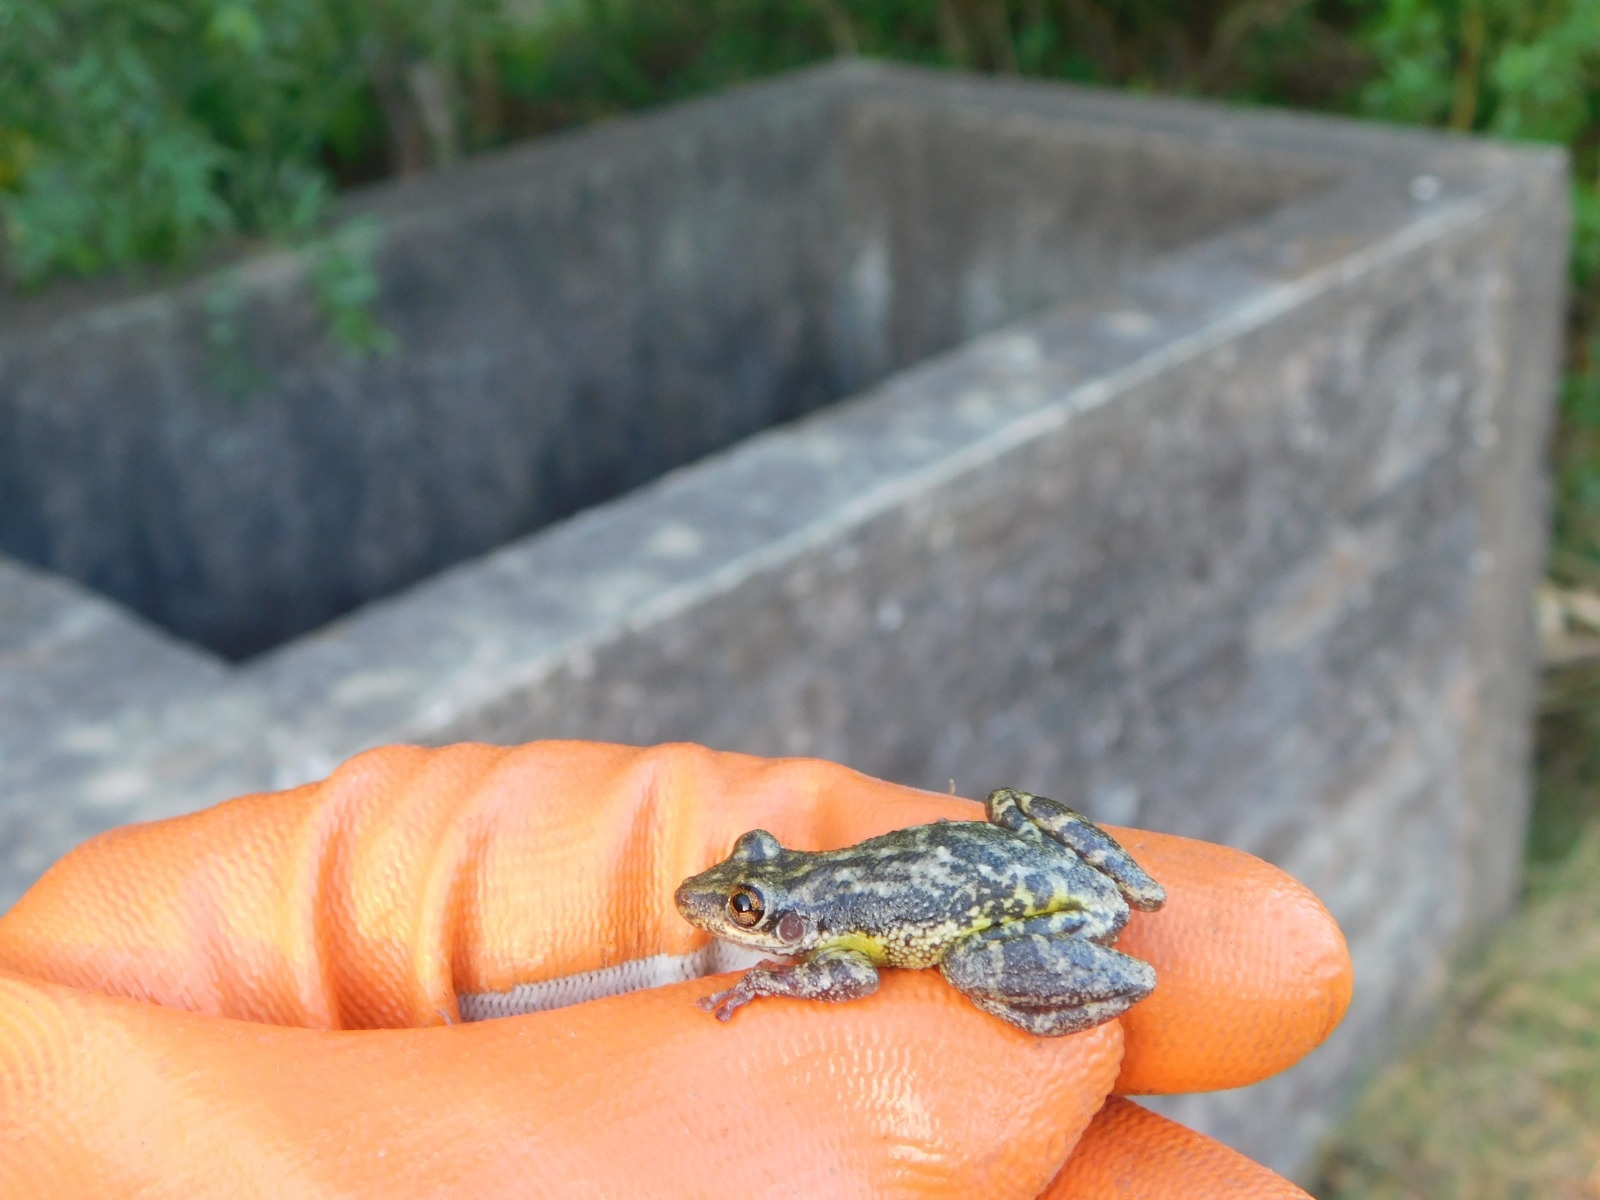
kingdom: Animalia
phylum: Chordata
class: Amphibia
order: Anura
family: Hylidae
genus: Scinax
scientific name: Scinax fuscovarius
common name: Fuscous-blotched treefrog
